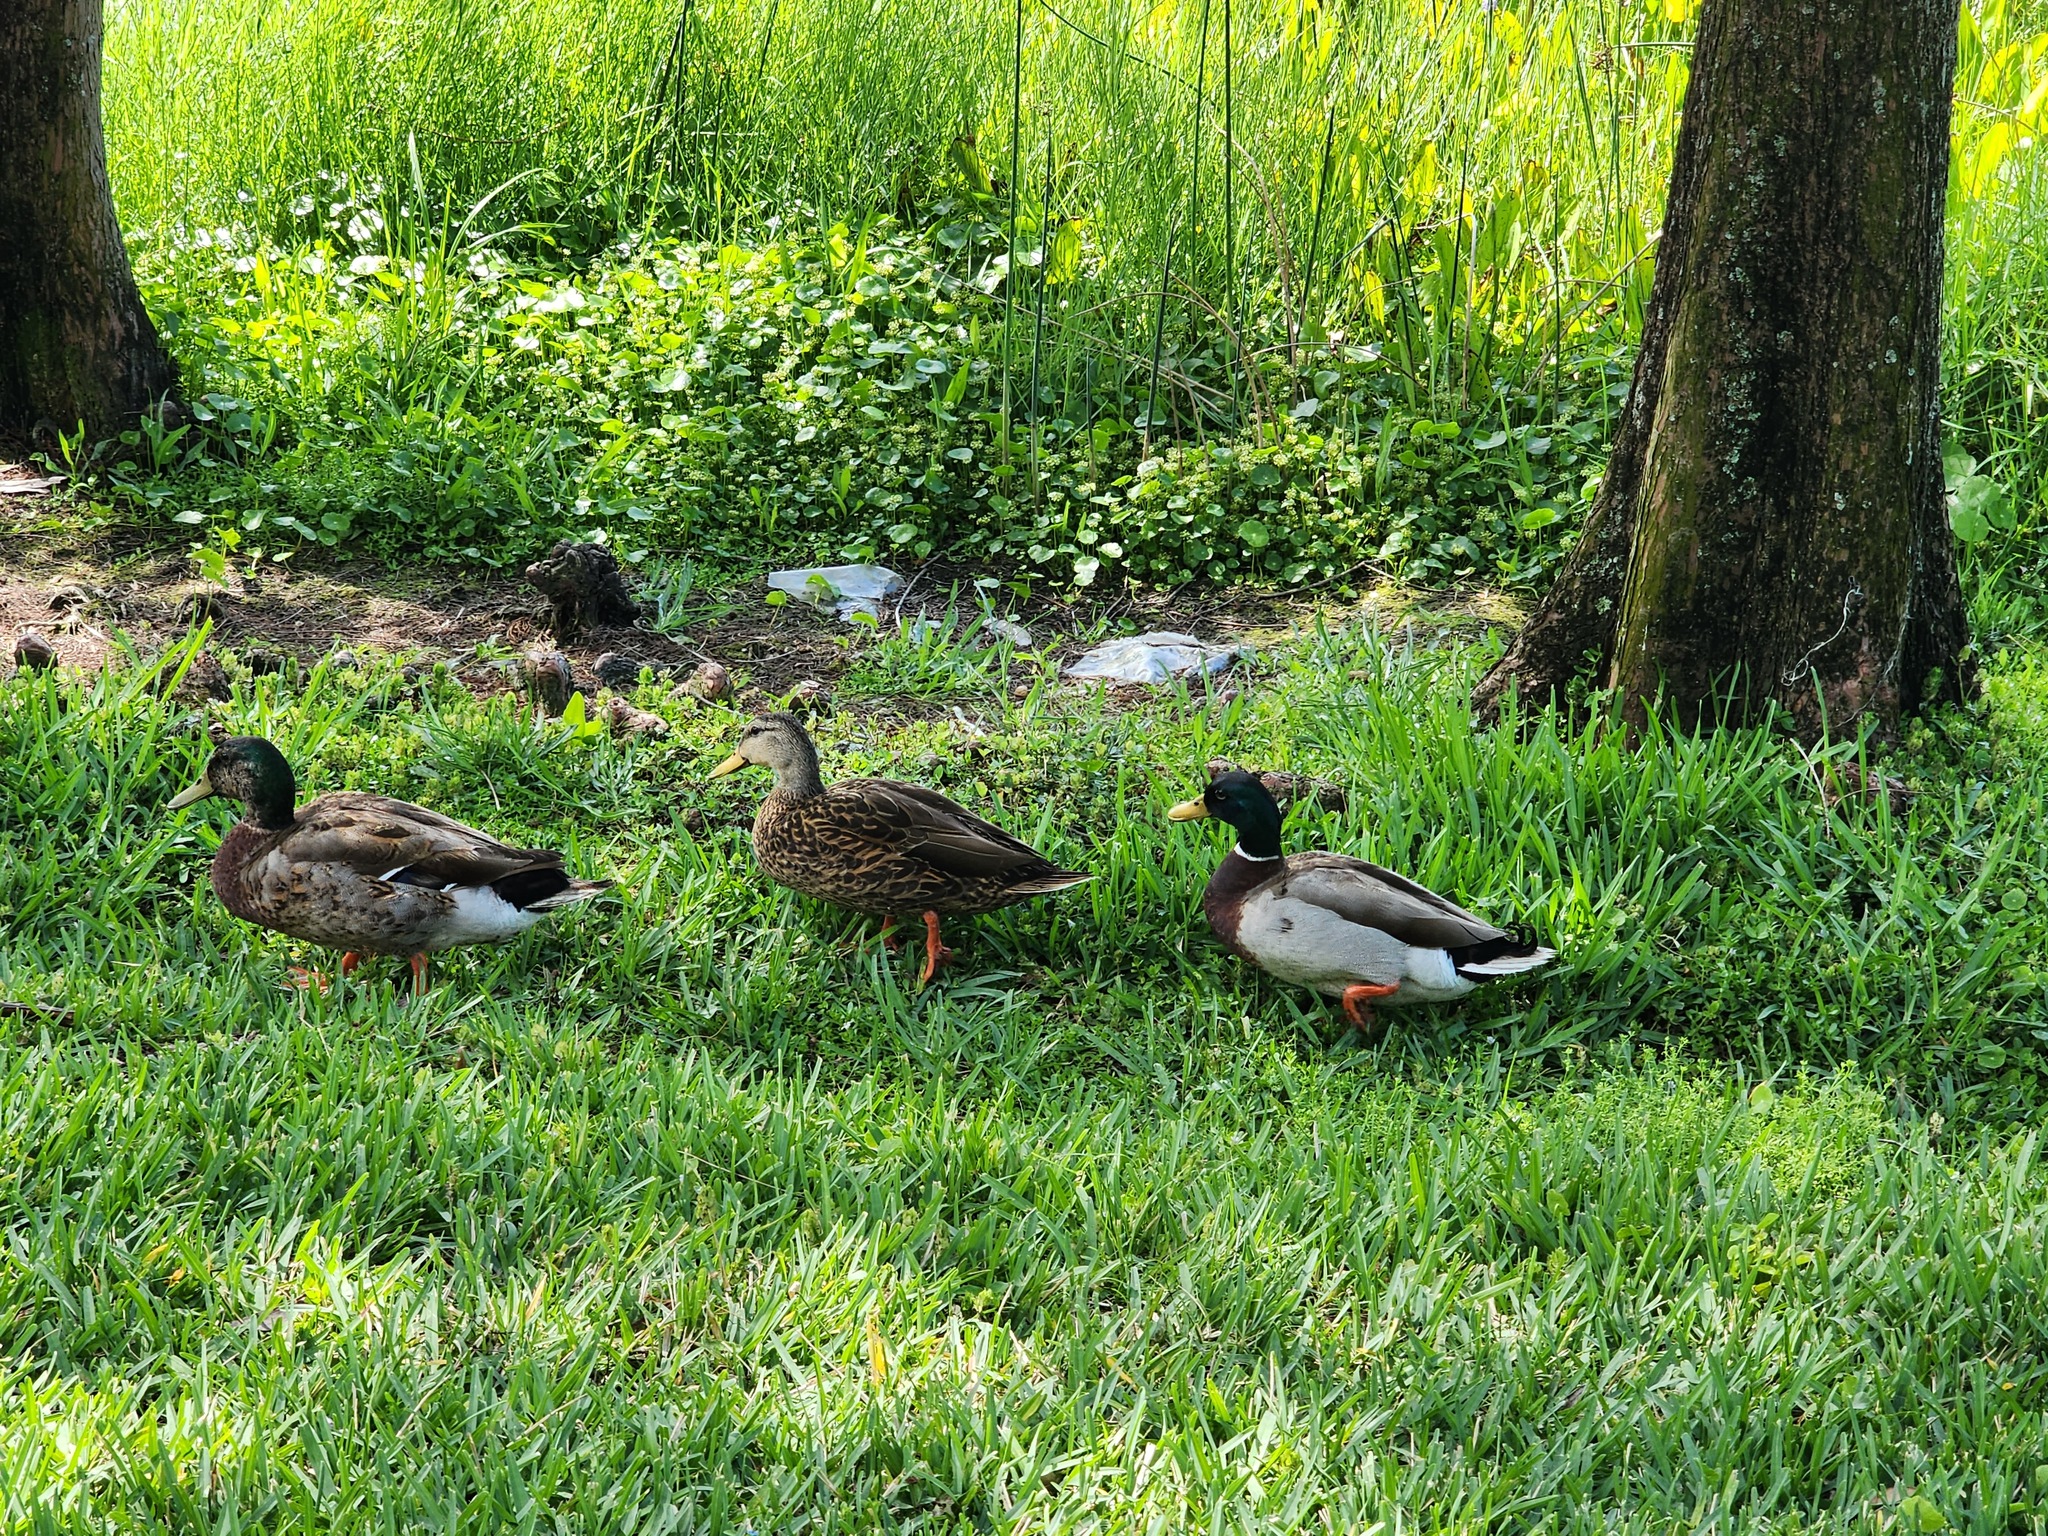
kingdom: Animalia
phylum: Chordata
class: Aves
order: Anseriformes
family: Anatidae
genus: Anas
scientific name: Anas platyrhynchos
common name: Mallard
